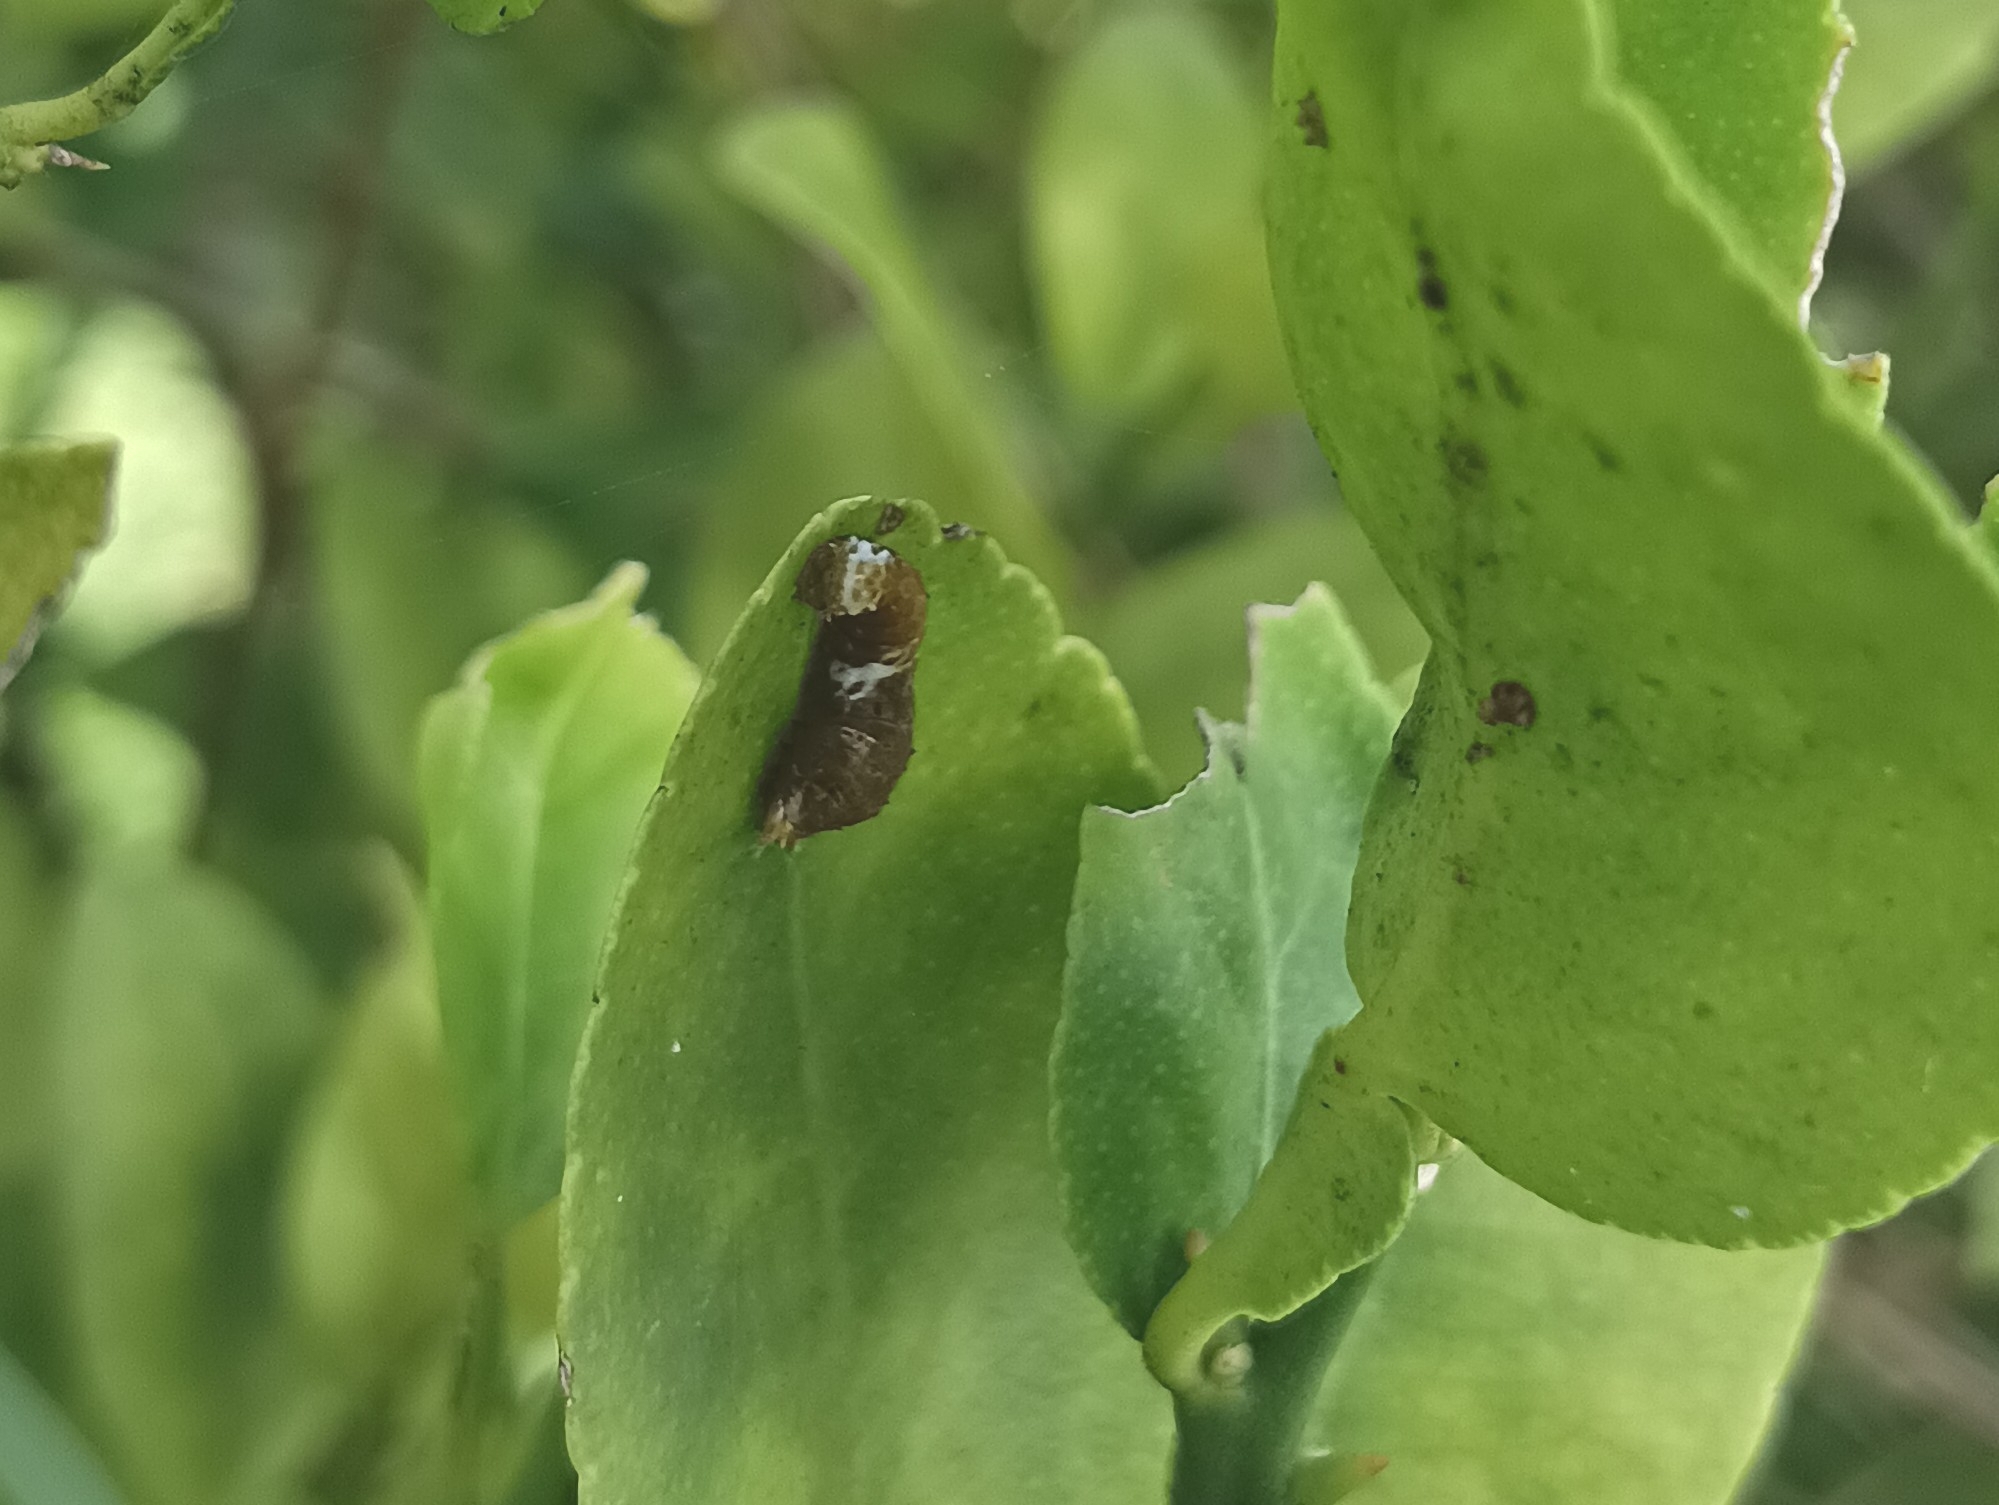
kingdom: Animalia
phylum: Arthropoda
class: Insecta
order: Lepidoptera
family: Papilionidae
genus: Papilio
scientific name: Papilio demoleus
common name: Lime butterfly
